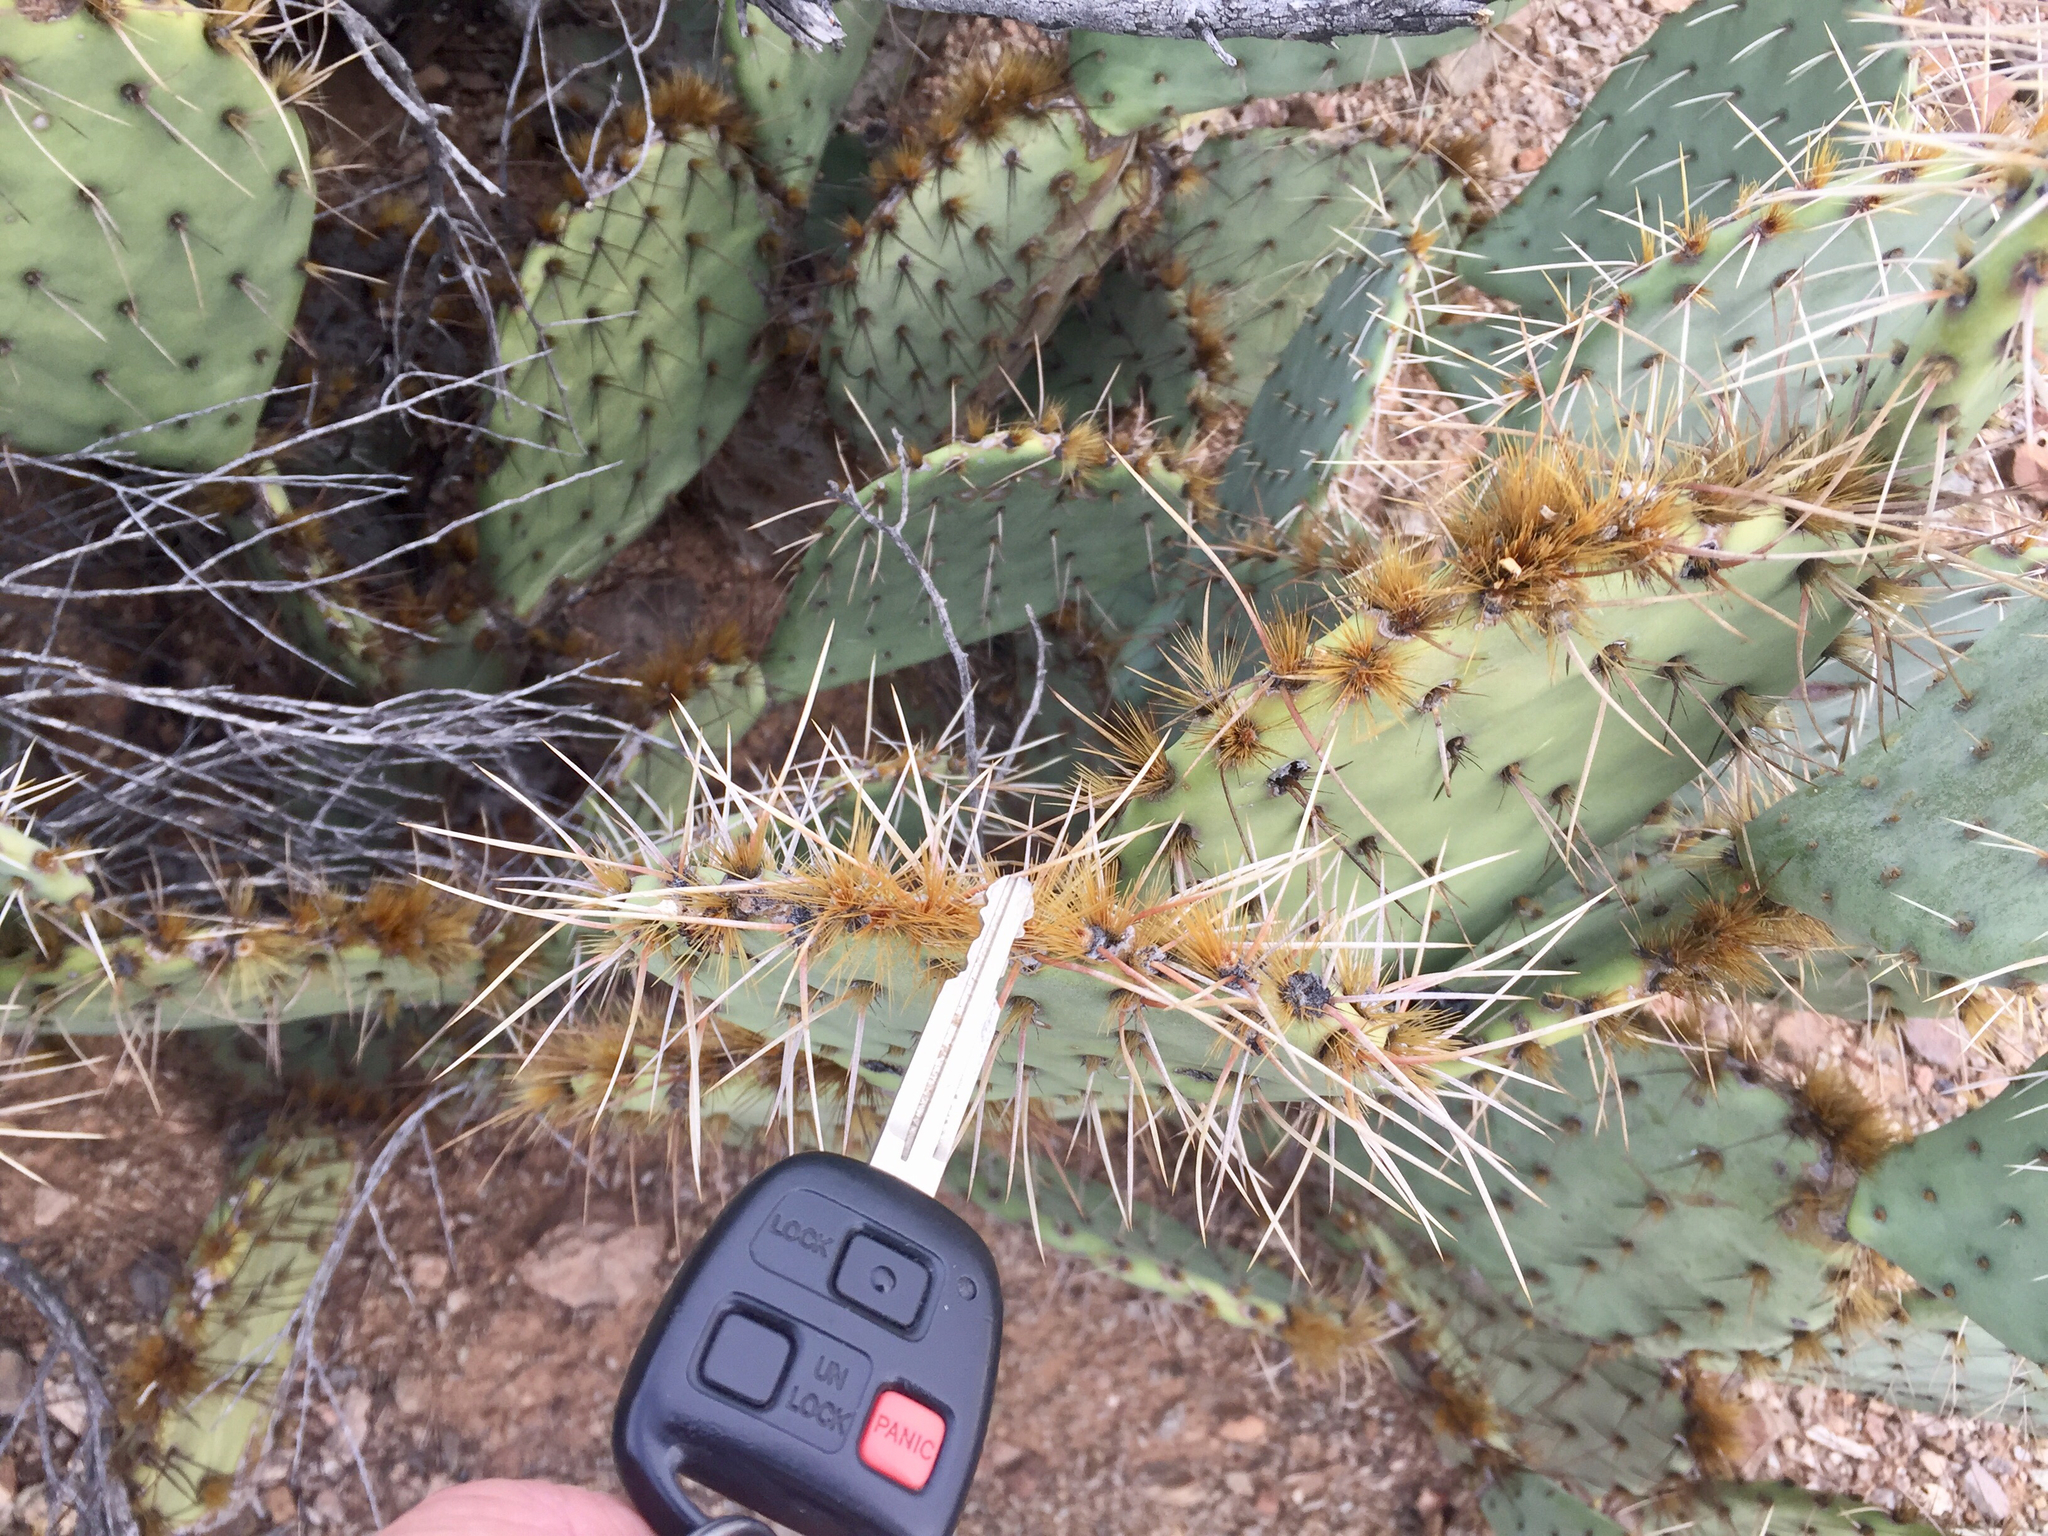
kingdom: Plantae
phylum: Tracheophyta
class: Magnoliopsida
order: Caryophyllales
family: Cactaceae
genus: Opuntia
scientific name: Opuntia phaeacantha
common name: New mexico prickly-pear
